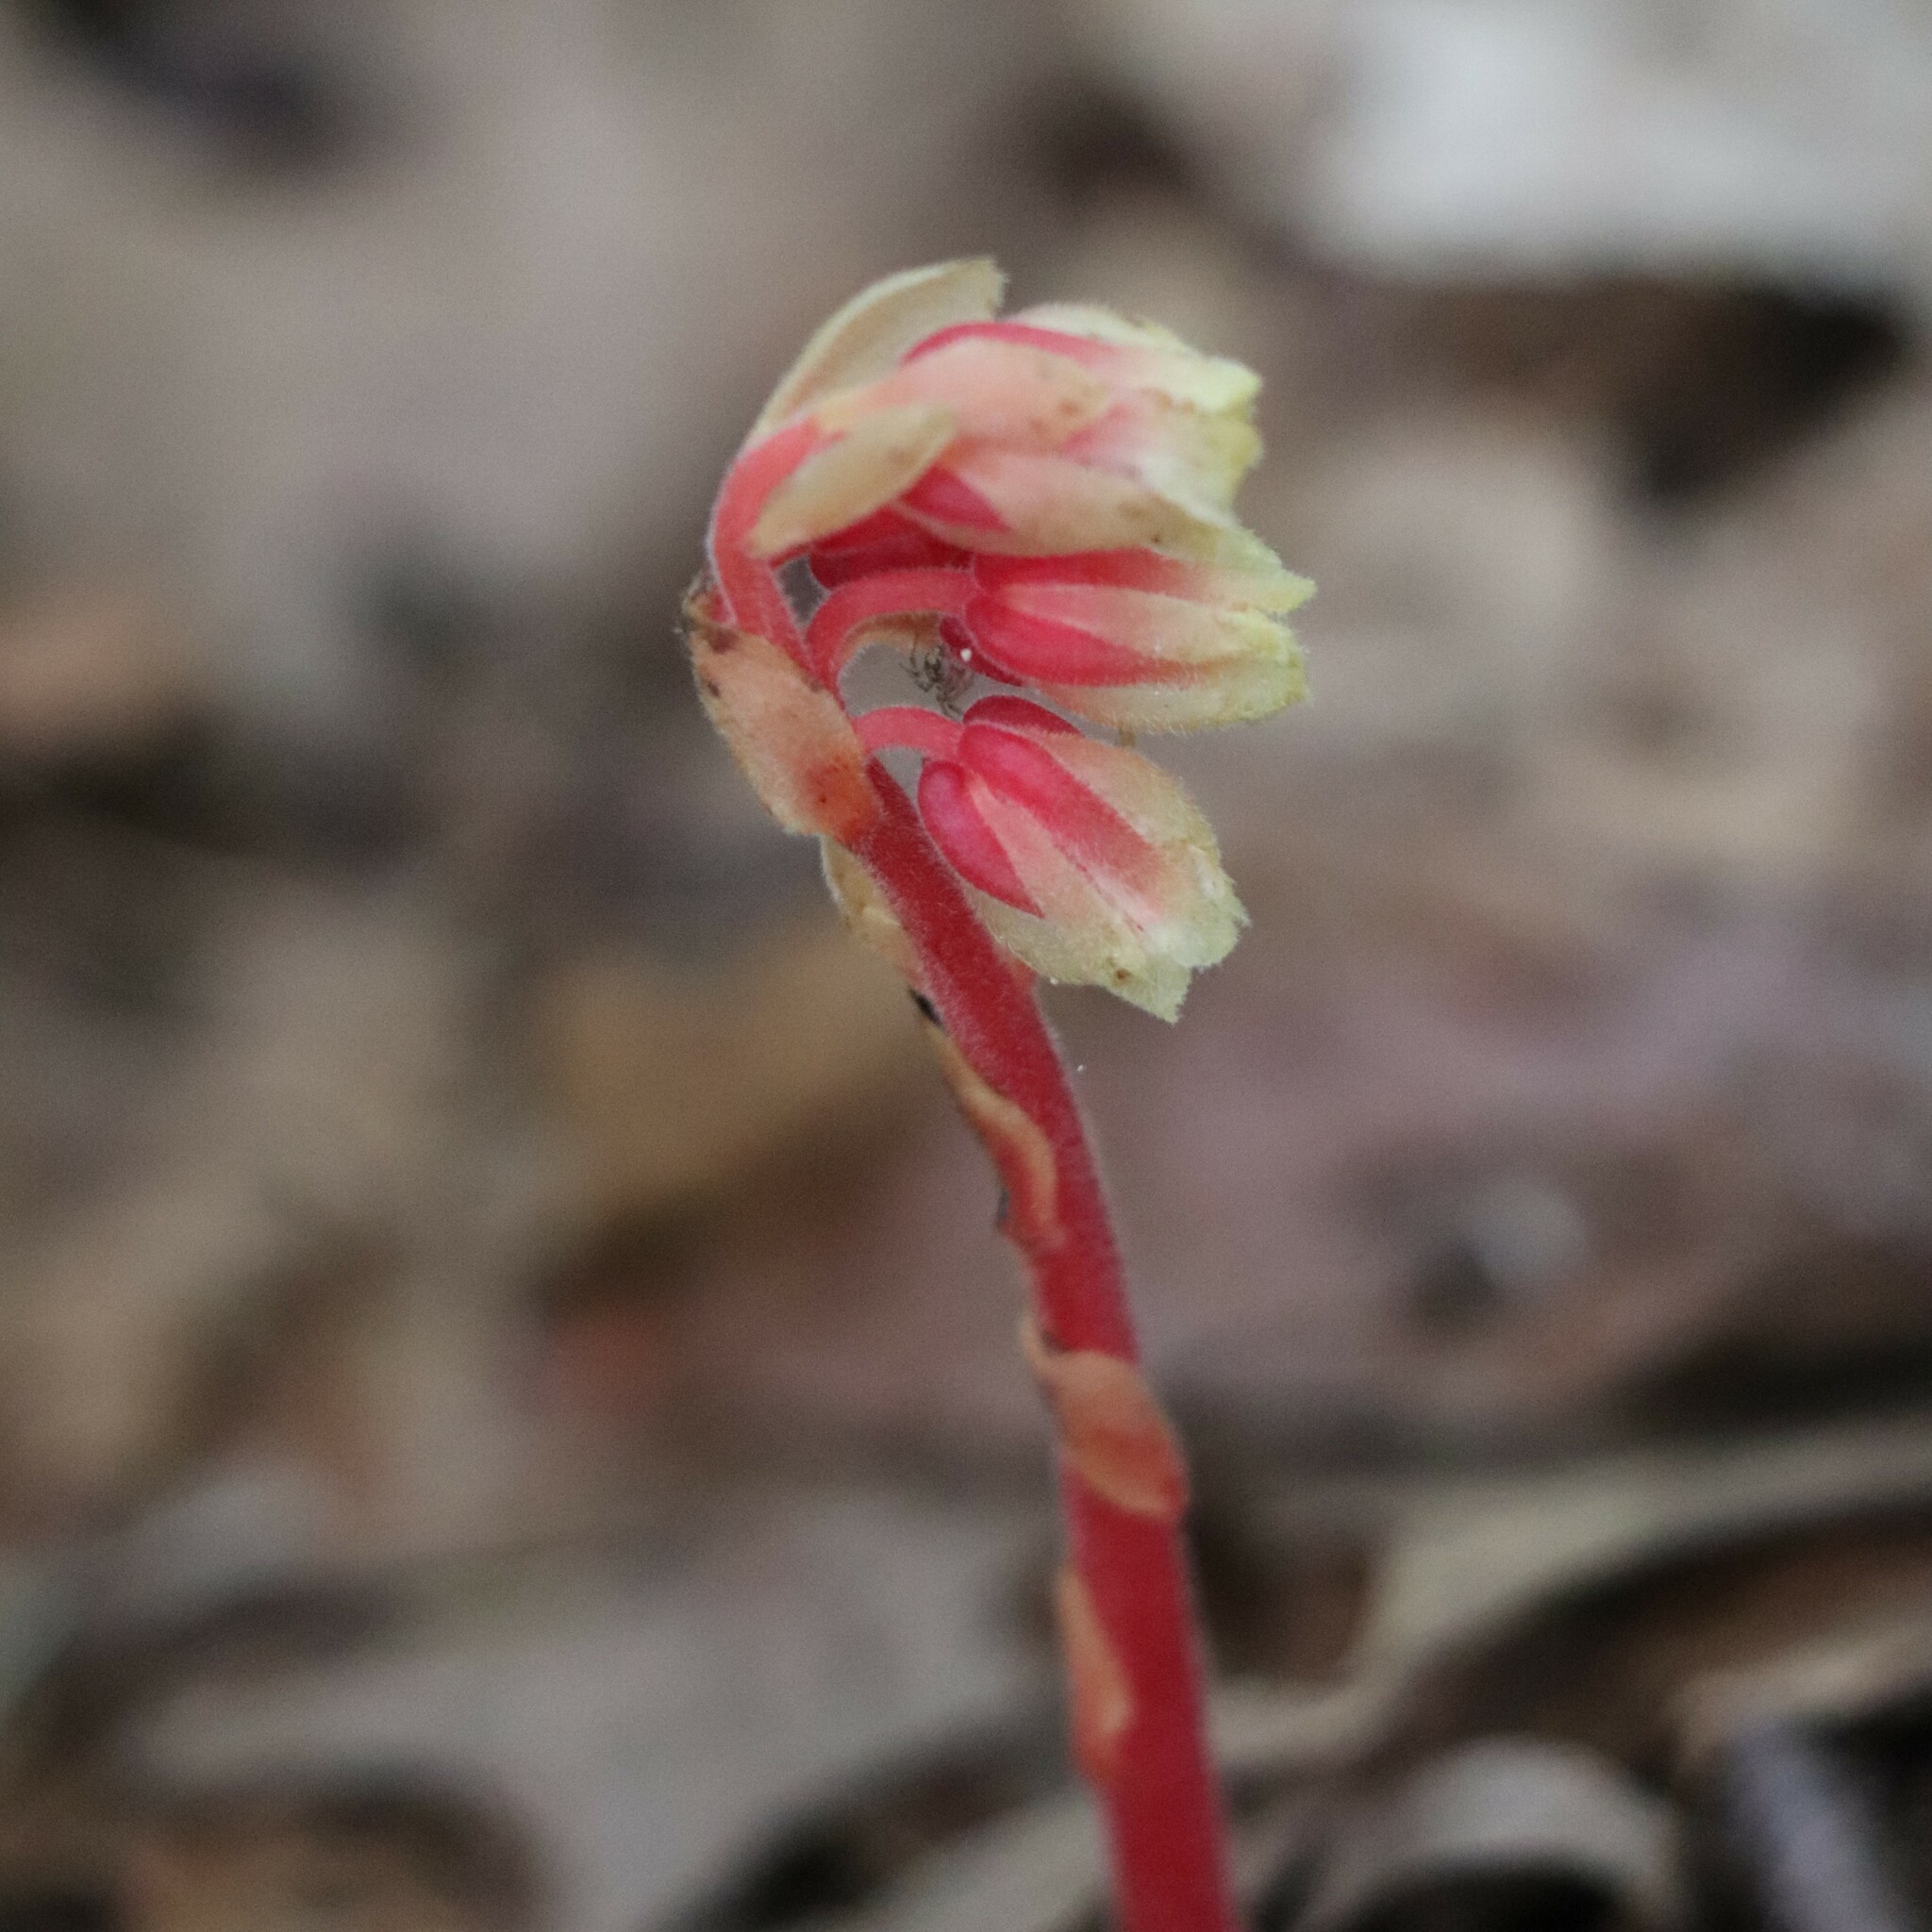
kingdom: Plantae
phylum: Tracheophyta
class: Magnoliopsida
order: Ericales
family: Ericaceae
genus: Hypopitys
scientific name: Hypopitys monotropa
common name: Yellow bird's-nest
